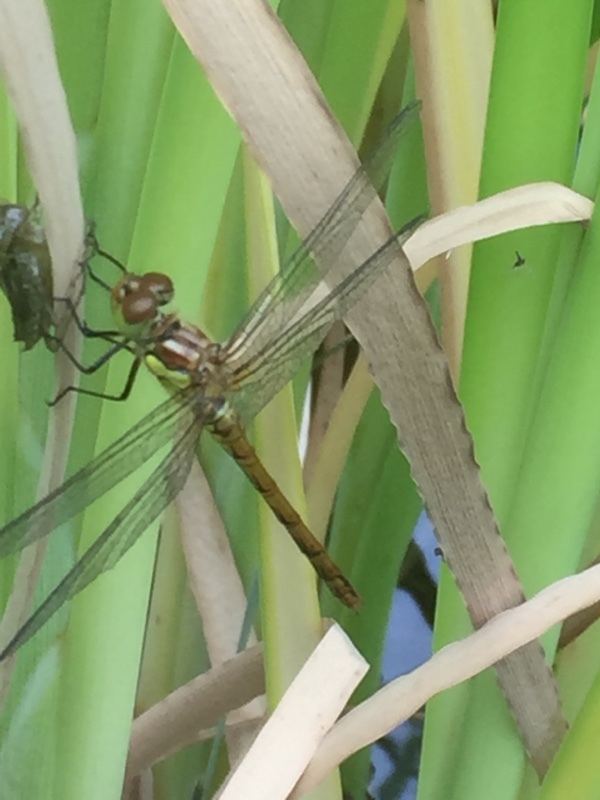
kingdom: Animalia
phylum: Arthropoda
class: Insecta
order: Odonata
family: Libellulidae
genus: Sympetrum
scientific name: Sympetrum striolatum
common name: Common darter
